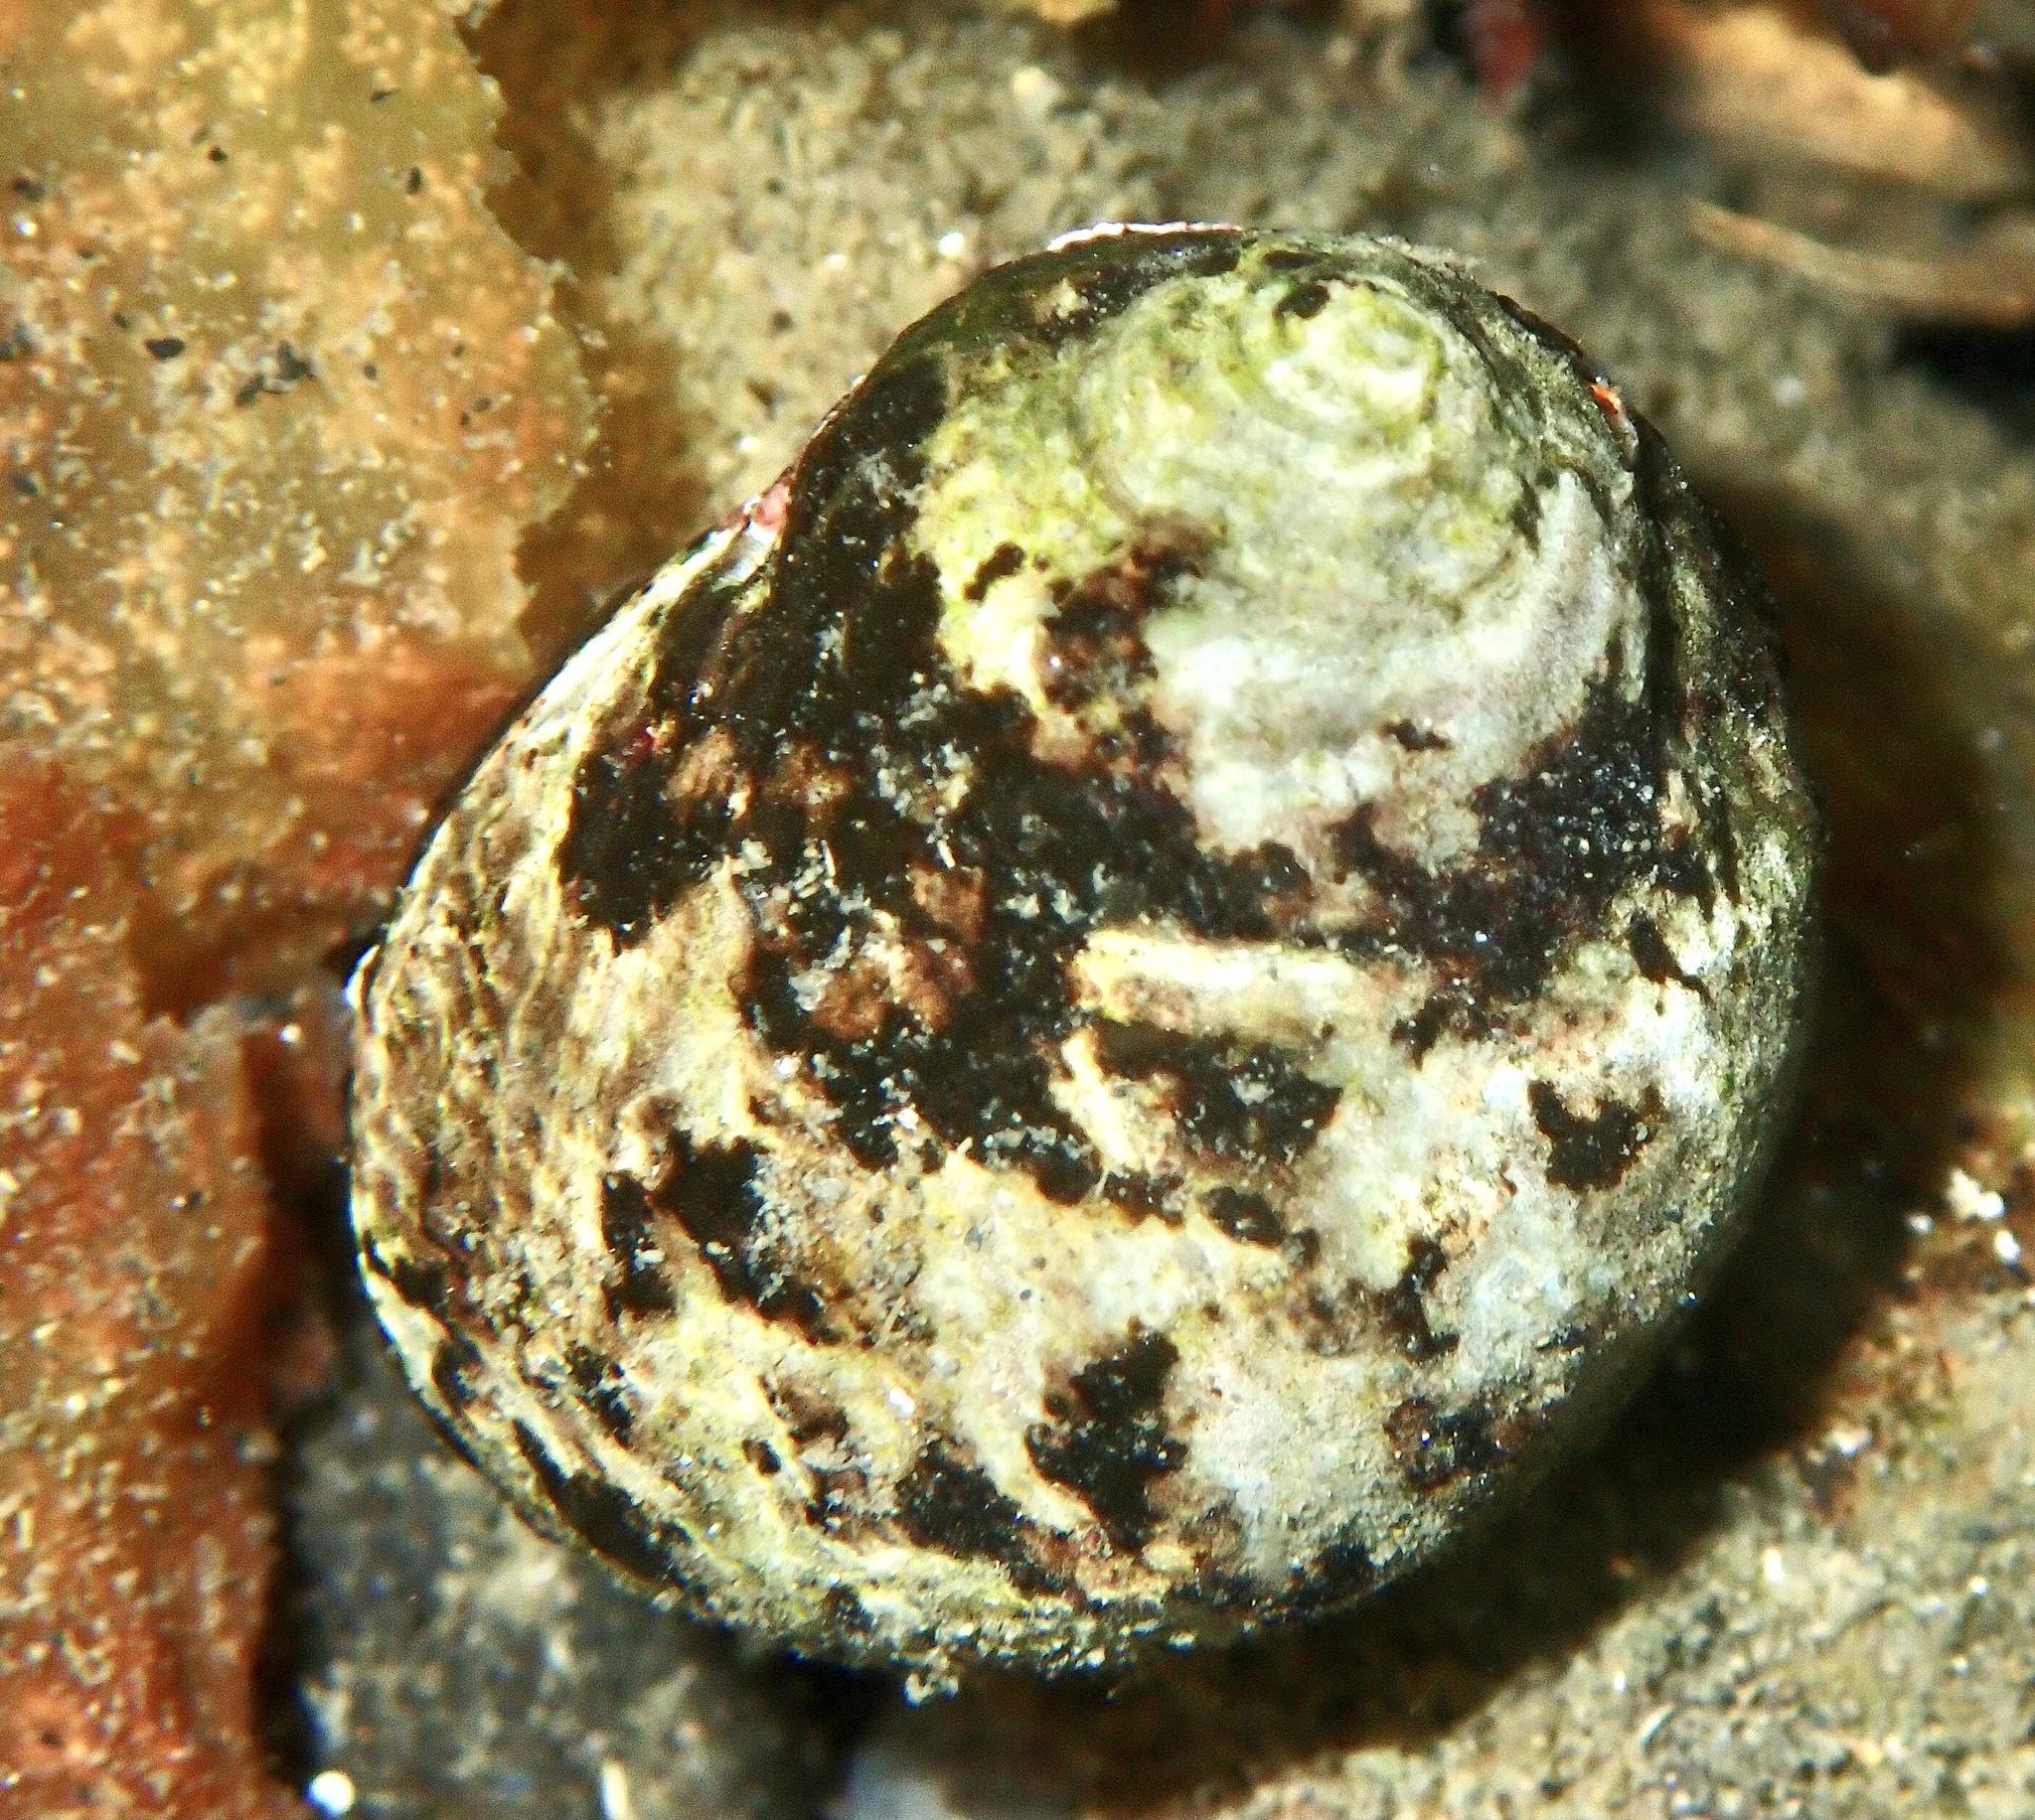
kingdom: Animalia
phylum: Mollusca
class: Gastropoda
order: Littorinimorpha
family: Littorinidae
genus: Littorina
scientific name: Littorina littorea
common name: Common periwinkle
